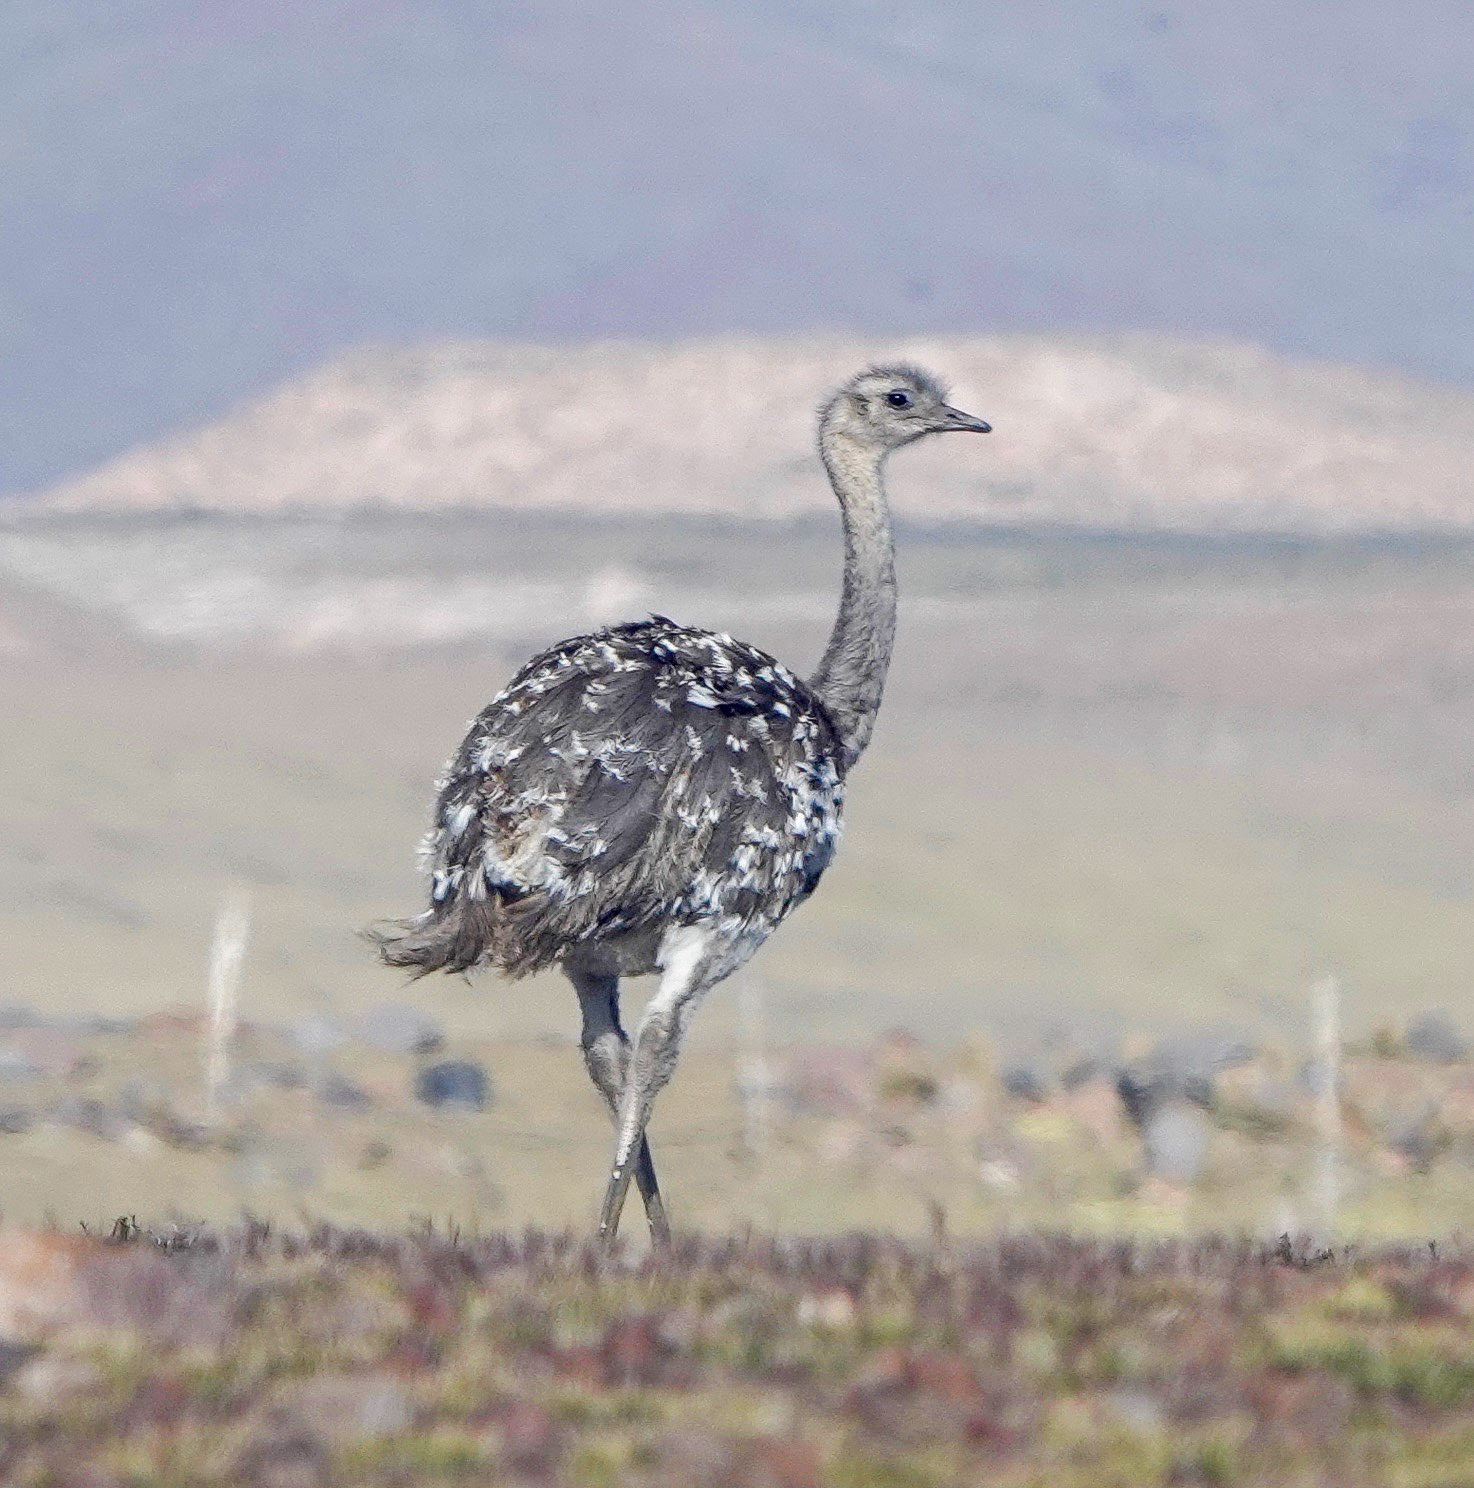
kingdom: Animalia
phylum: Chordata
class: Aves
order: Rheiformes
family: Rheidae
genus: Rhea
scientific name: Rhea pennata
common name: Lesser rhea
